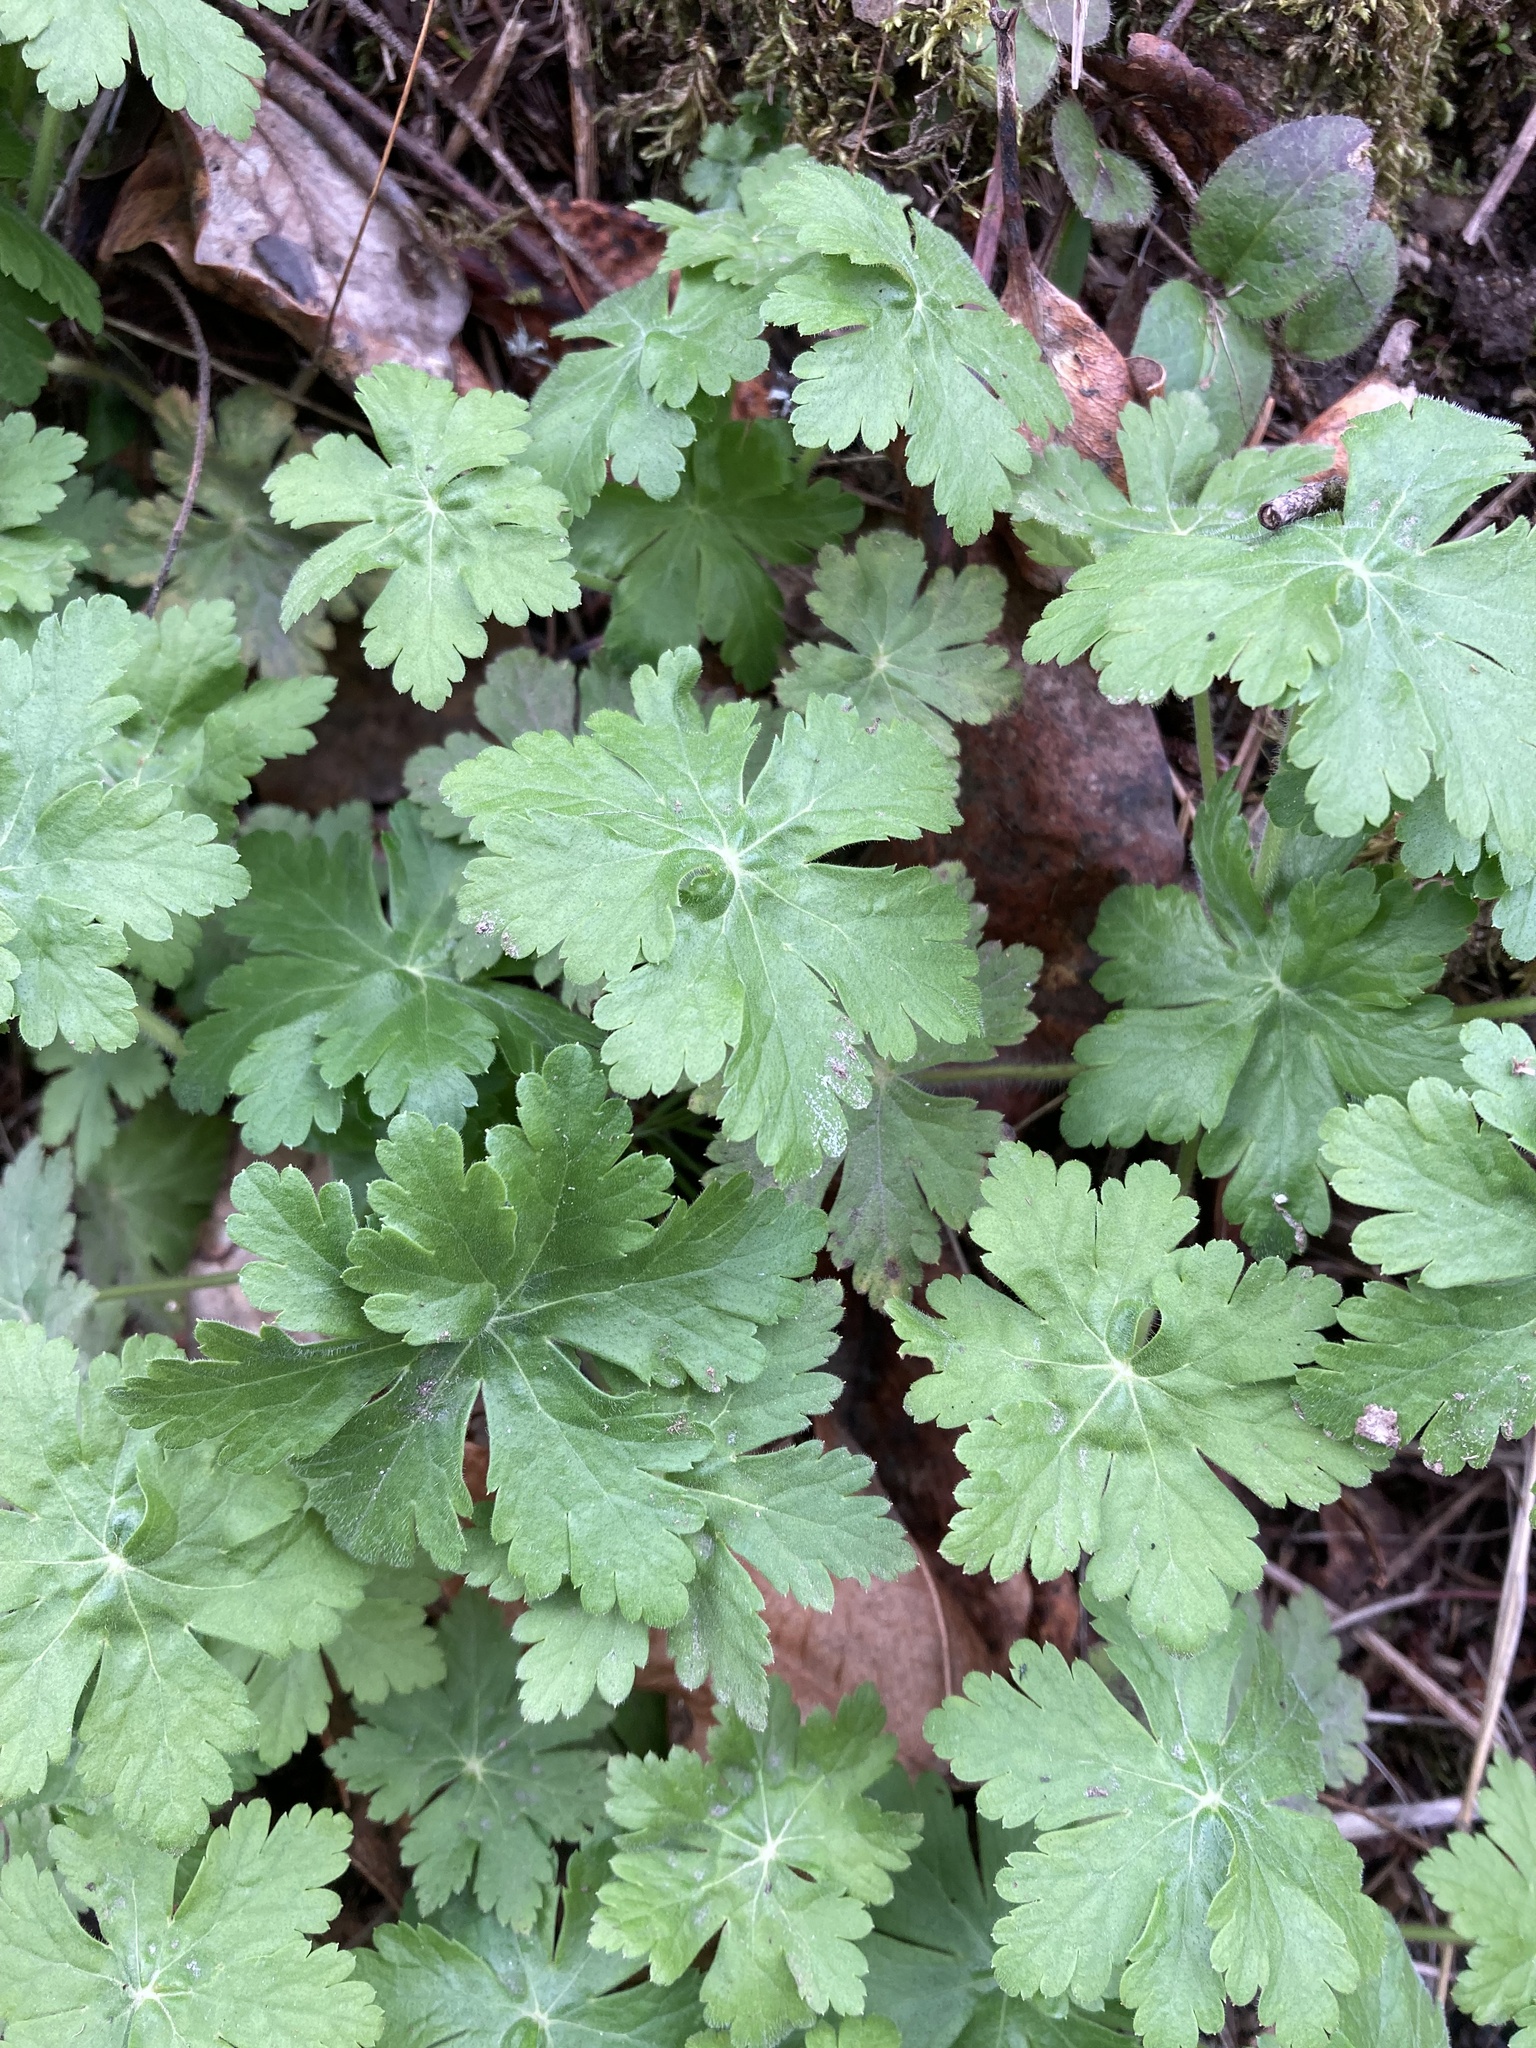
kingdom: Plantae
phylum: Tracheophyta
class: Magnoliopsida
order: Geraniales
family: Geraniaceae
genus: Geranium
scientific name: Geranium macrorrhizum
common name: Rock crane's-bill
